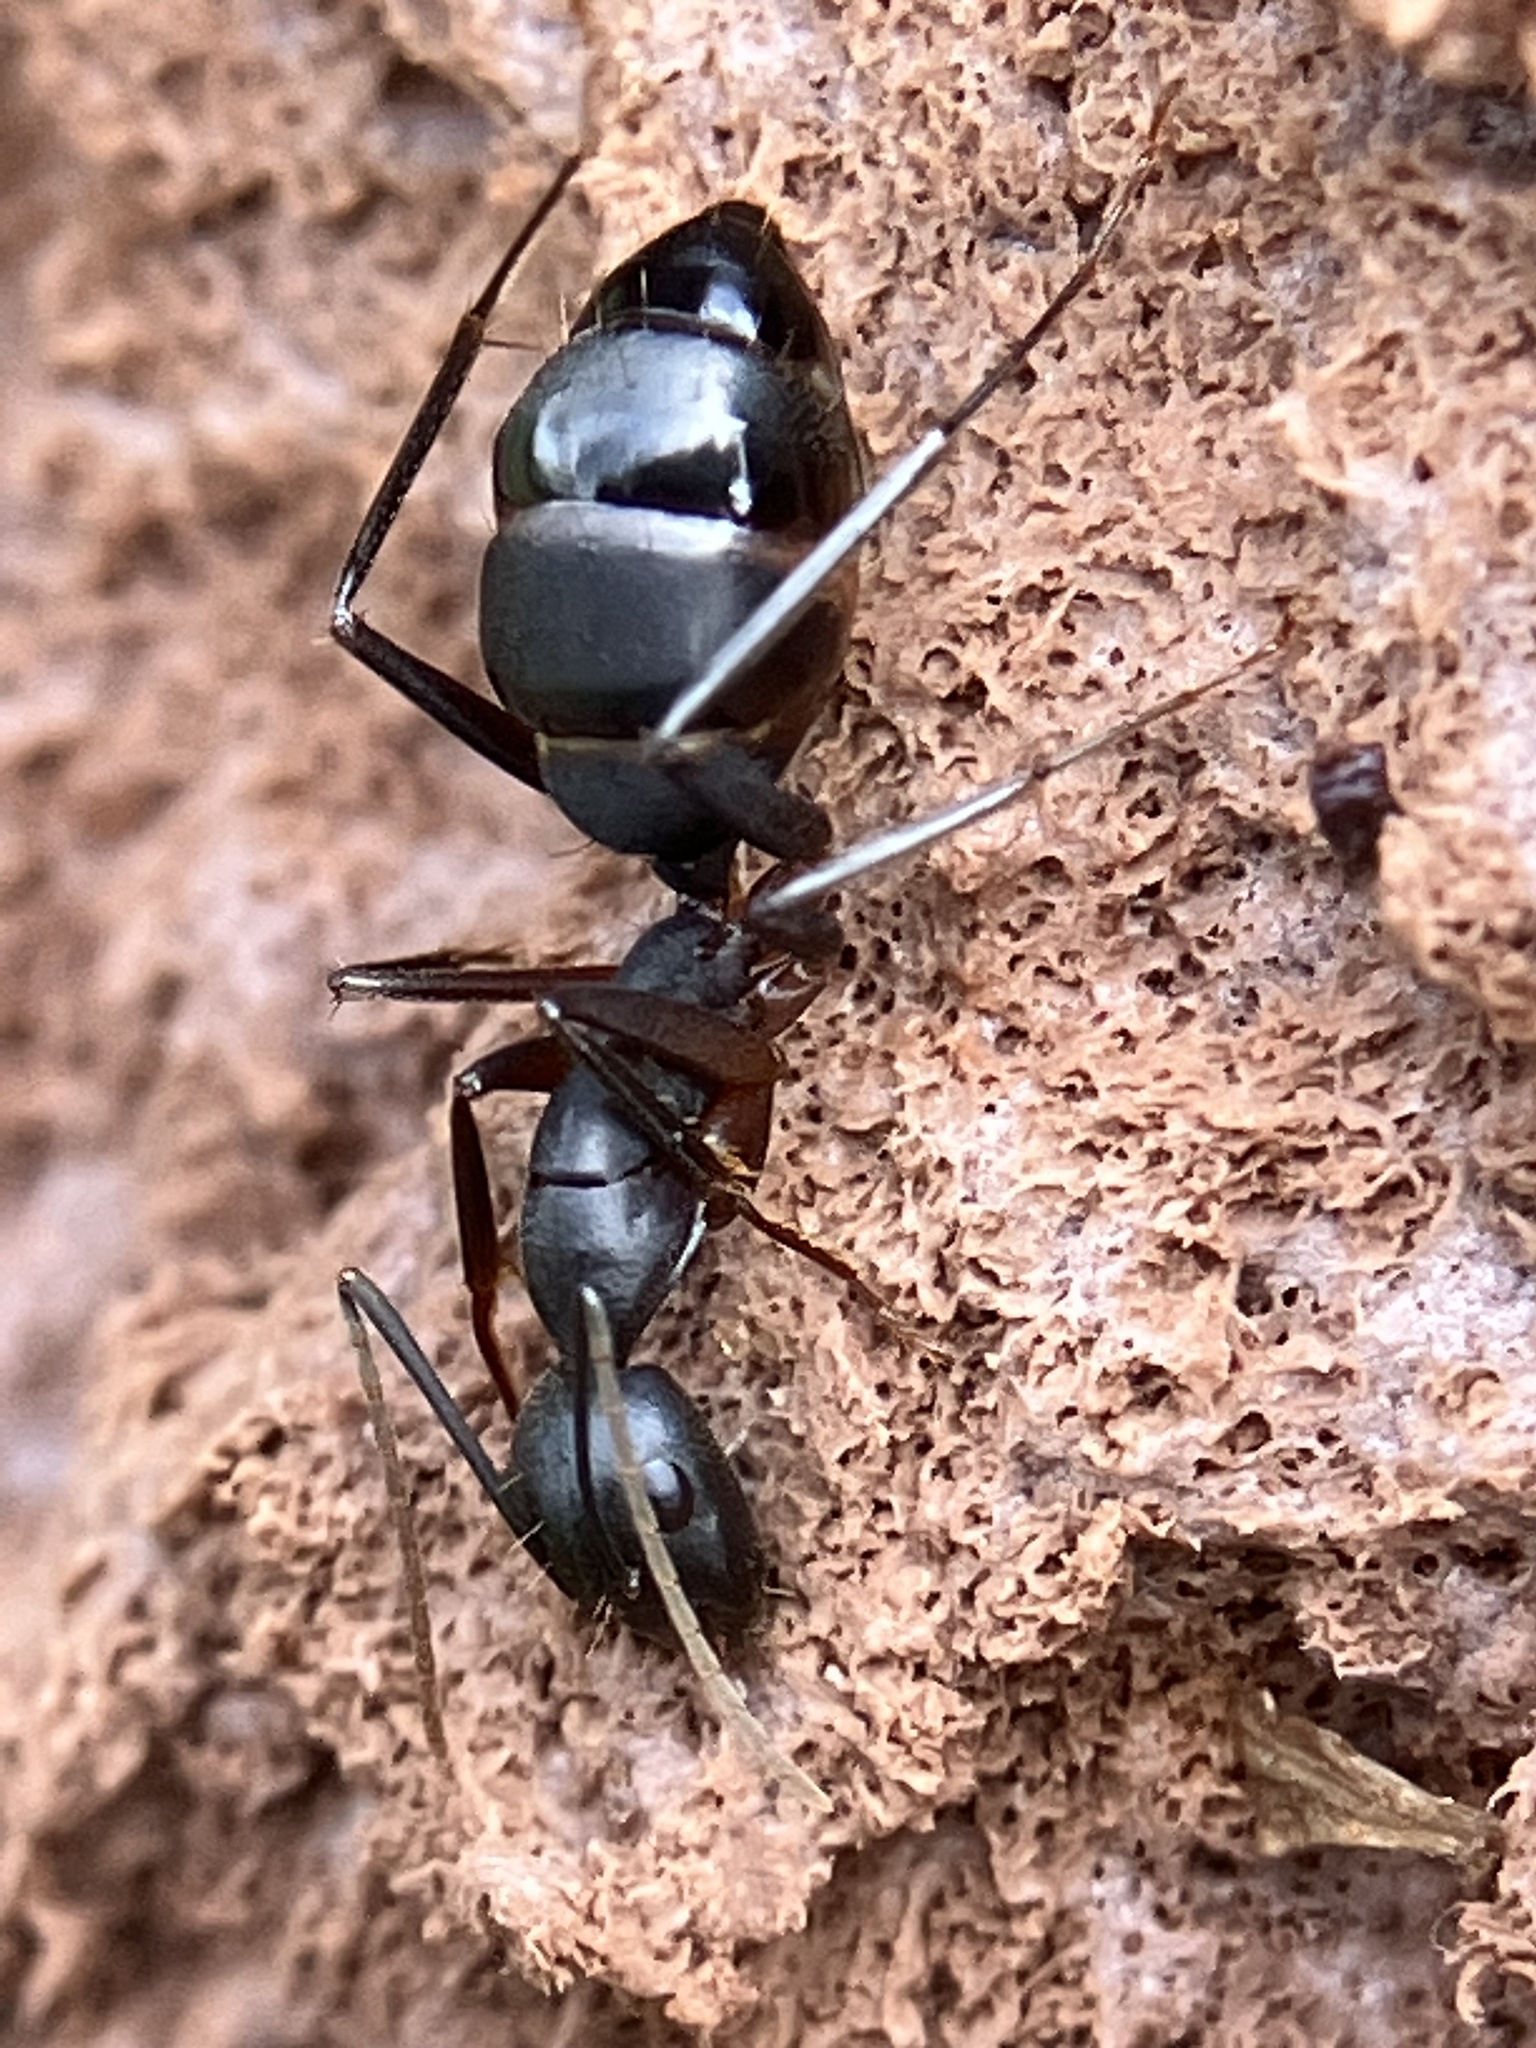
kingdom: Animalia
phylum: Arthropoda
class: Insecta
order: Hymenoptera
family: Formicidae
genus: Camponotus
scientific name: Camponotus compressus
